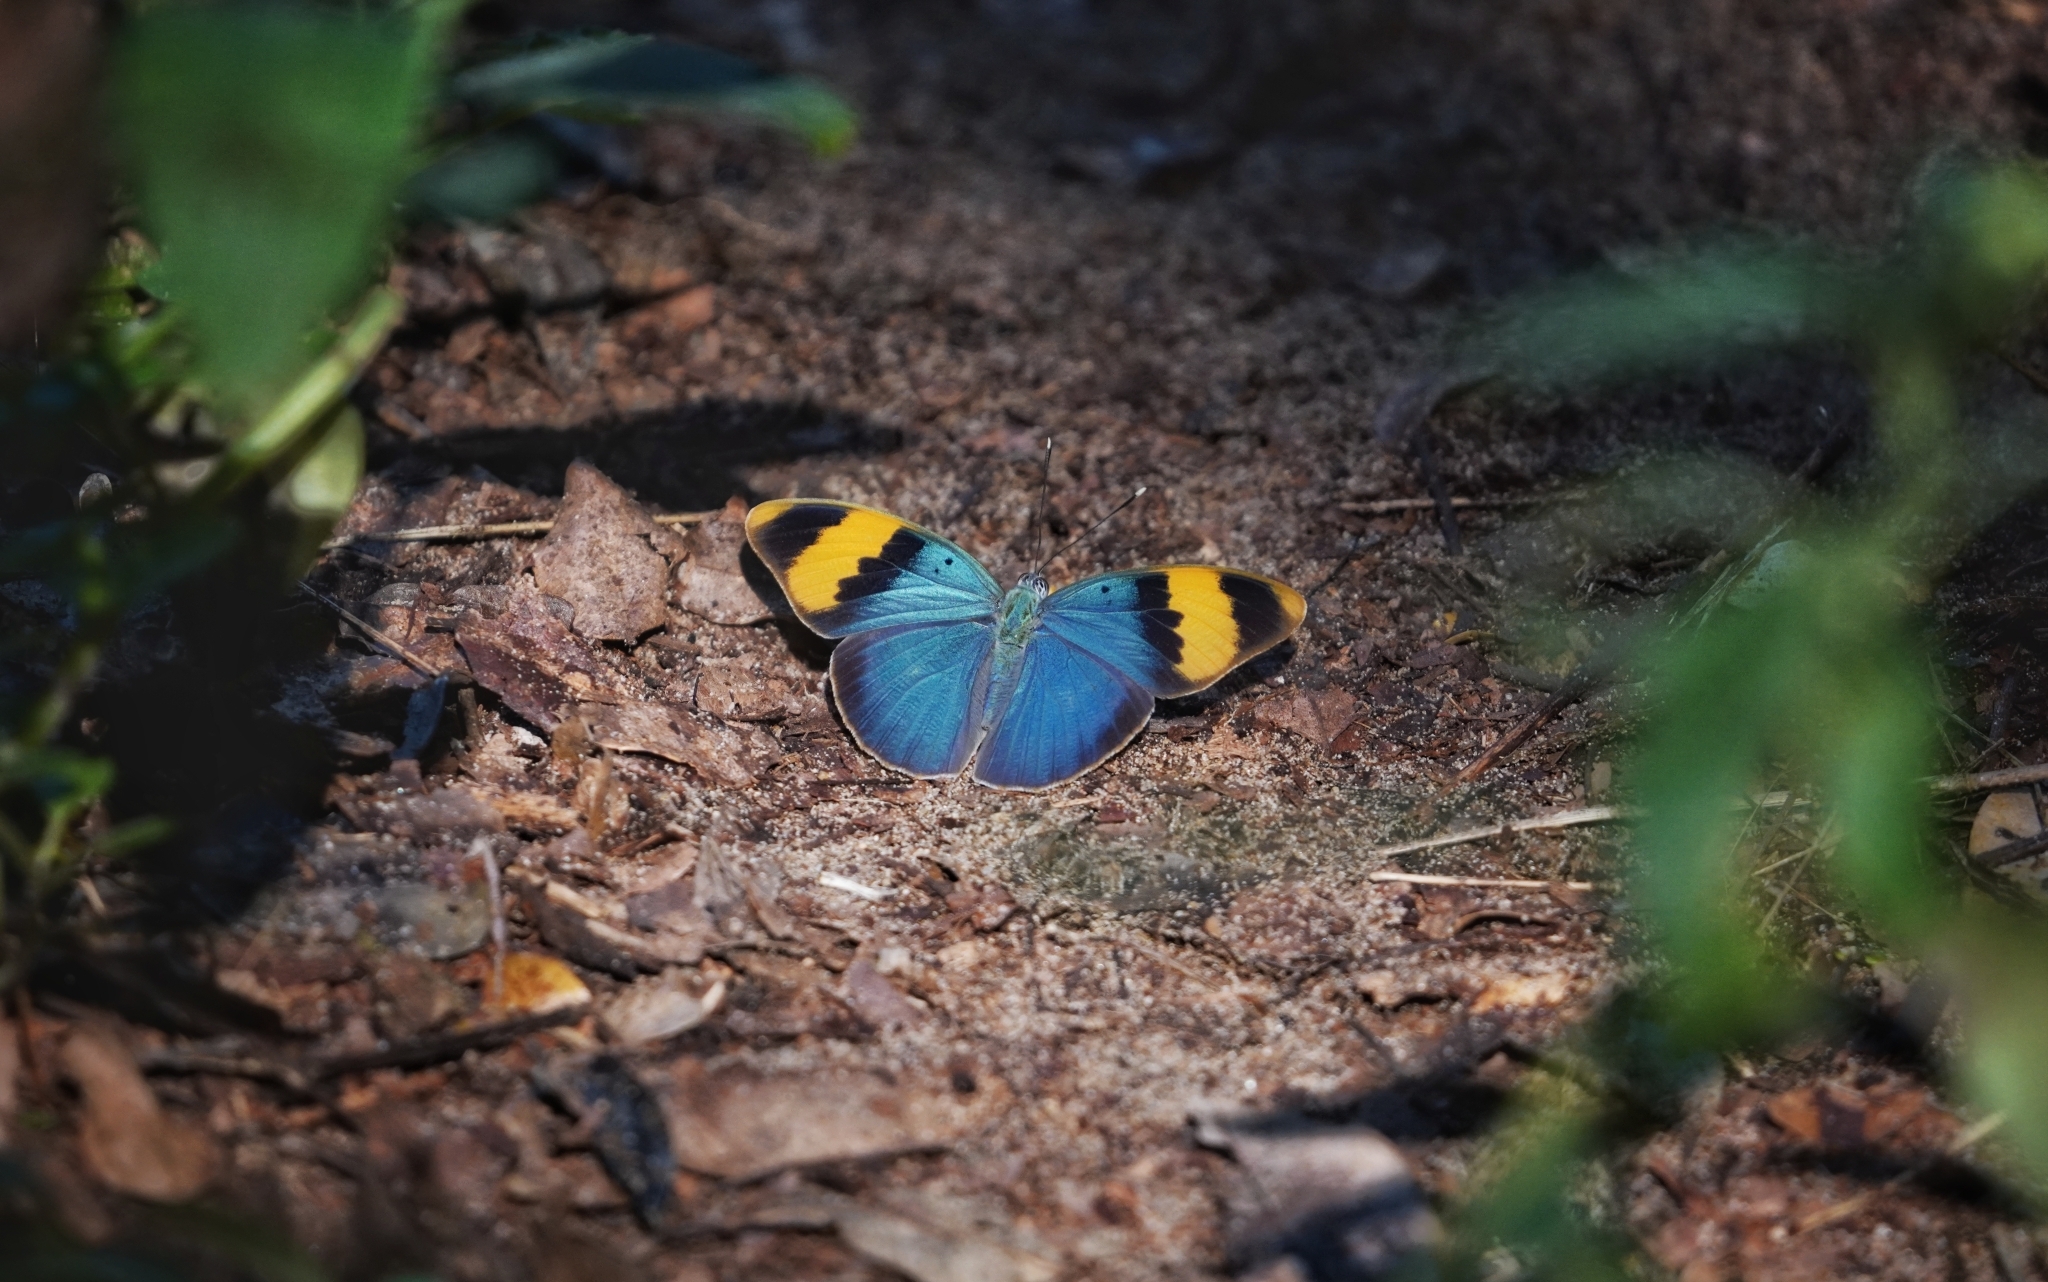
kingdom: Animalia
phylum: Arthropoda
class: Insecta
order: Lepidoptera
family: Nymphalidae
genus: Euphaedra
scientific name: Euphaedra neophron
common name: Gold-banded forester
